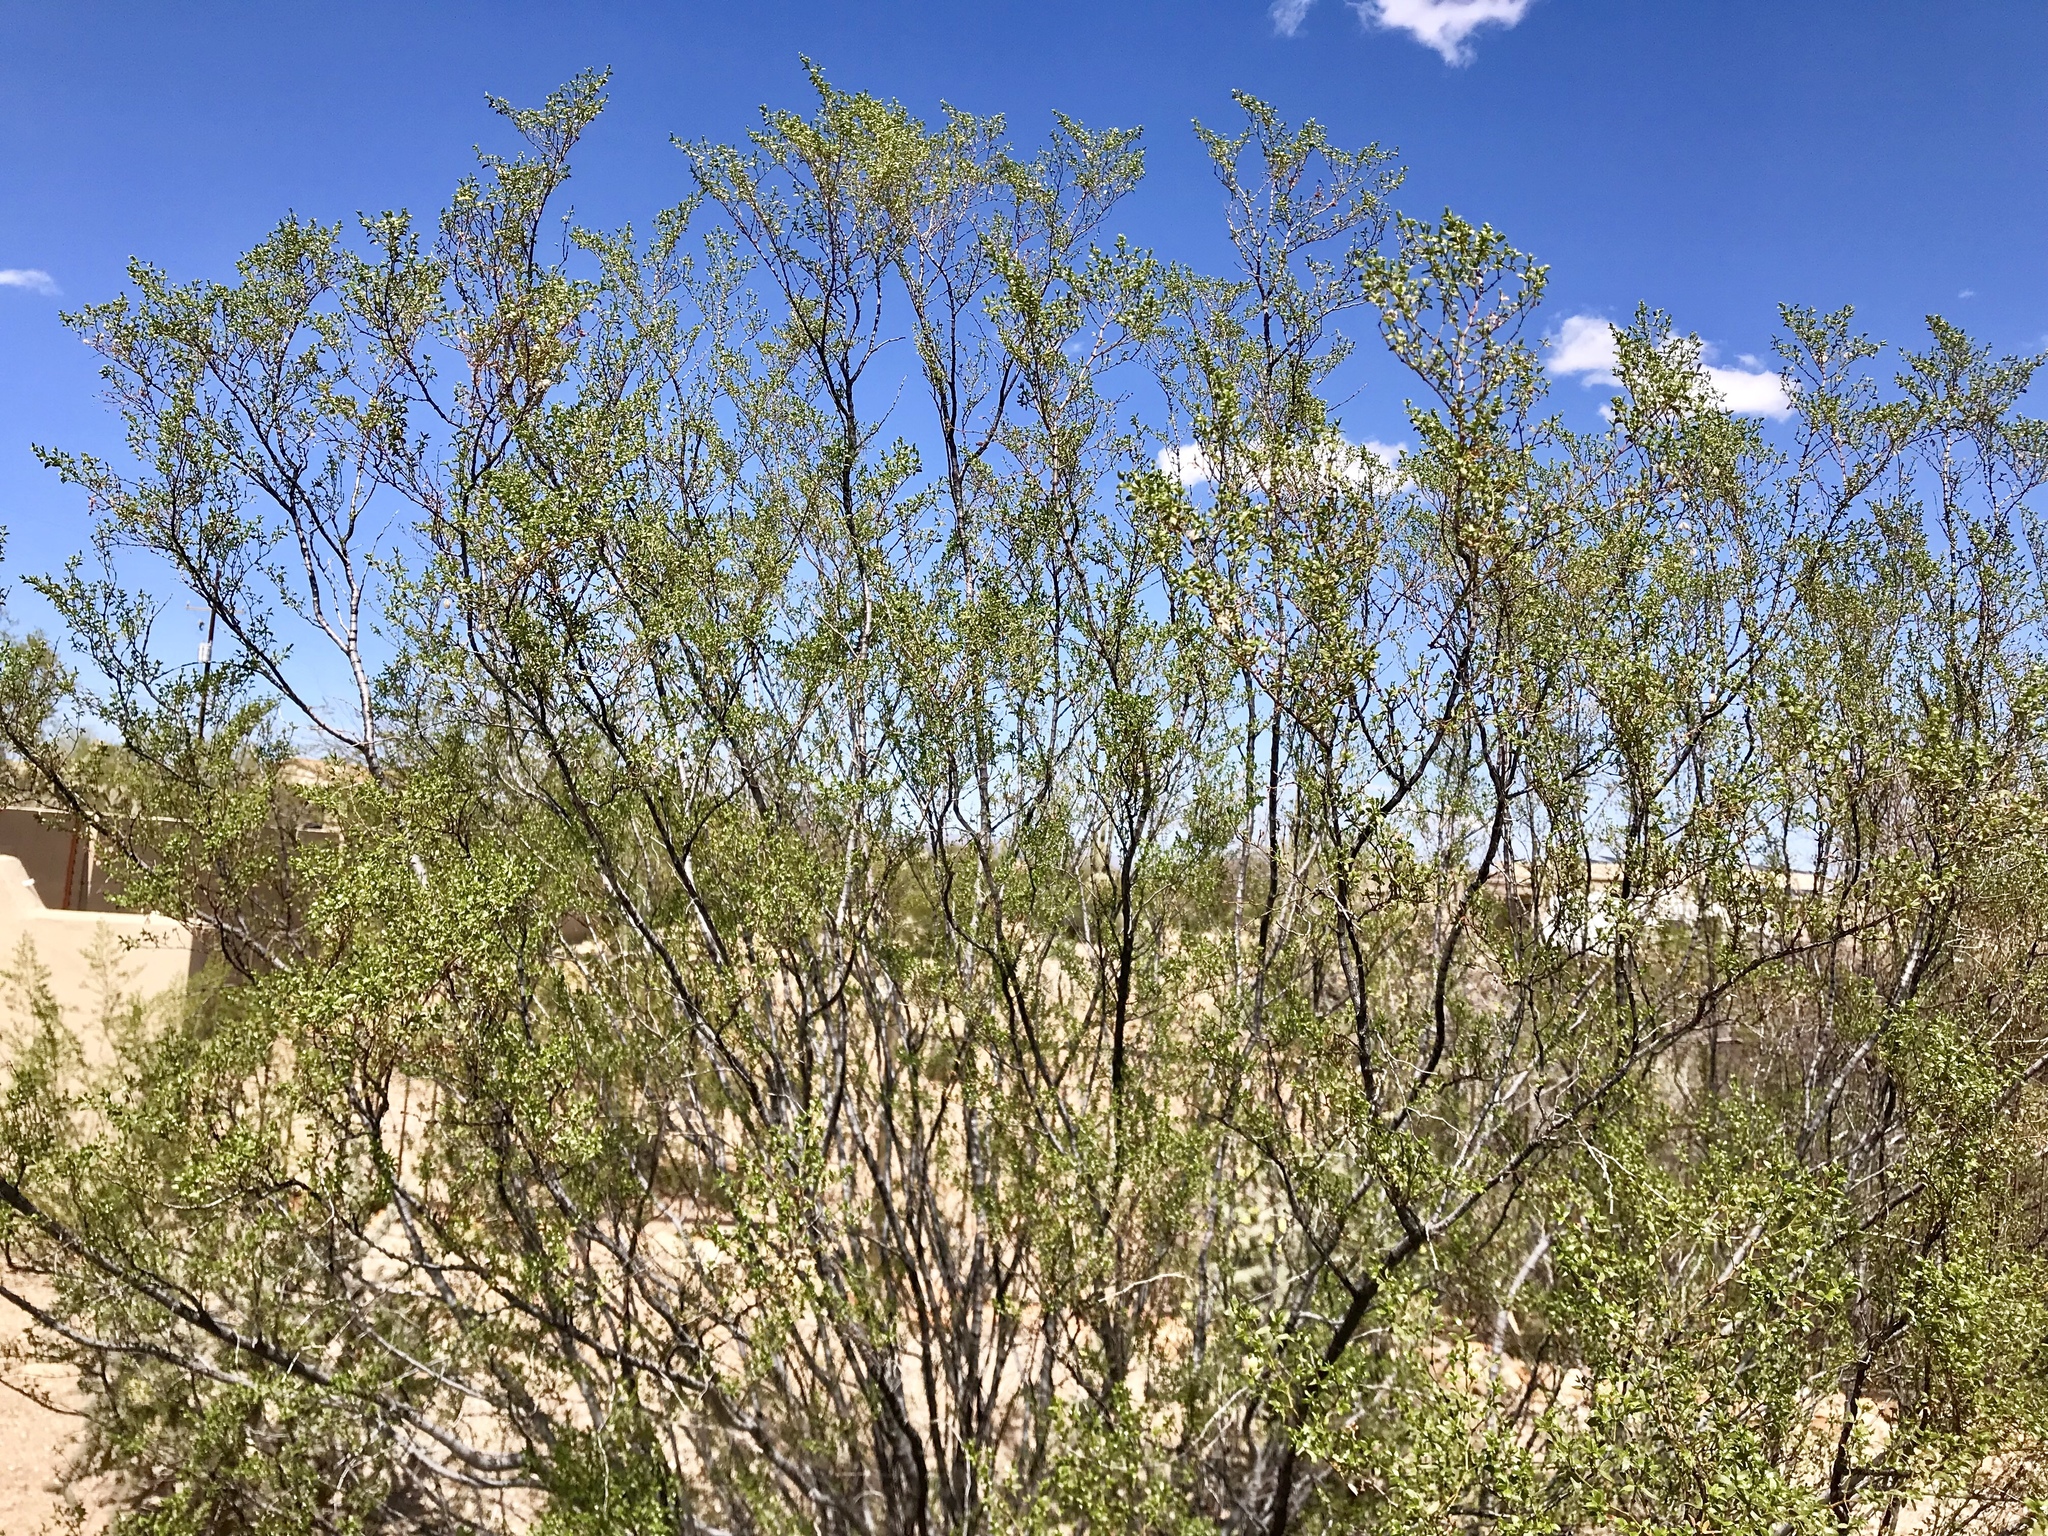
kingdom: Plantae
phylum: Tracheophyta
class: Magnoliopsida
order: Zygophyllales
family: Zygophyllaceae
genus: Larrea
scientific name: Larrea tridentata
